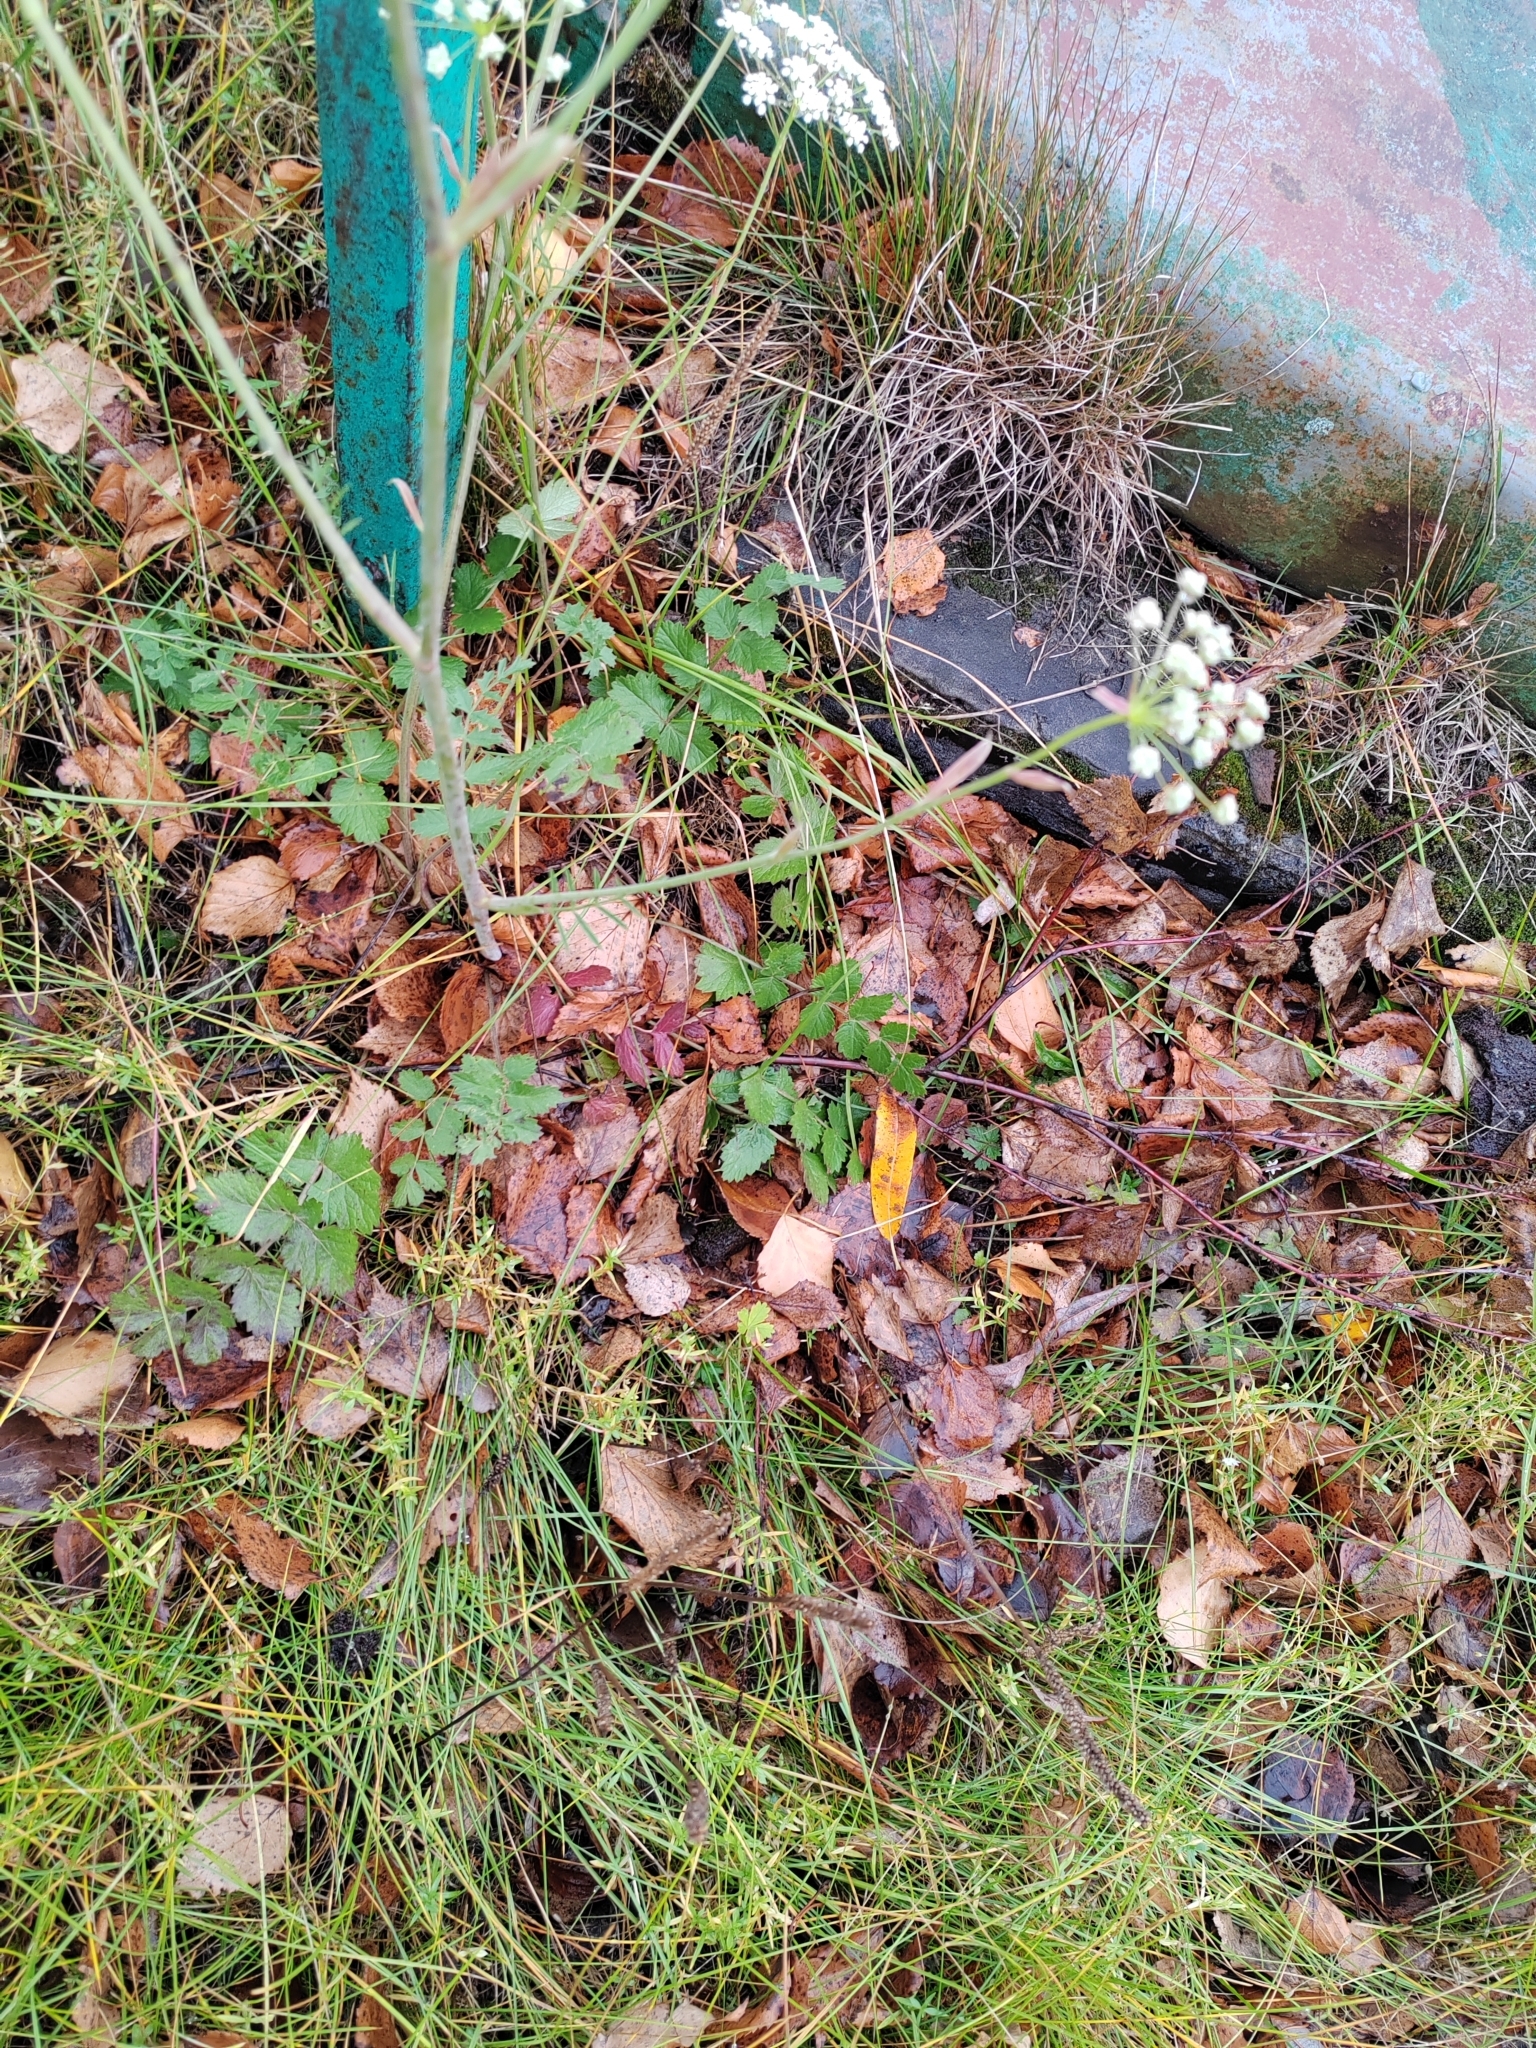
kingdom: Plantae
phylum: Tracheophyta
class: Magnoliopsida
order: Apiales
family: Apiaceae
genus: Pimpinella
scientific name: Pimpinella saxifraga
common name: Burnet-saxifrage
